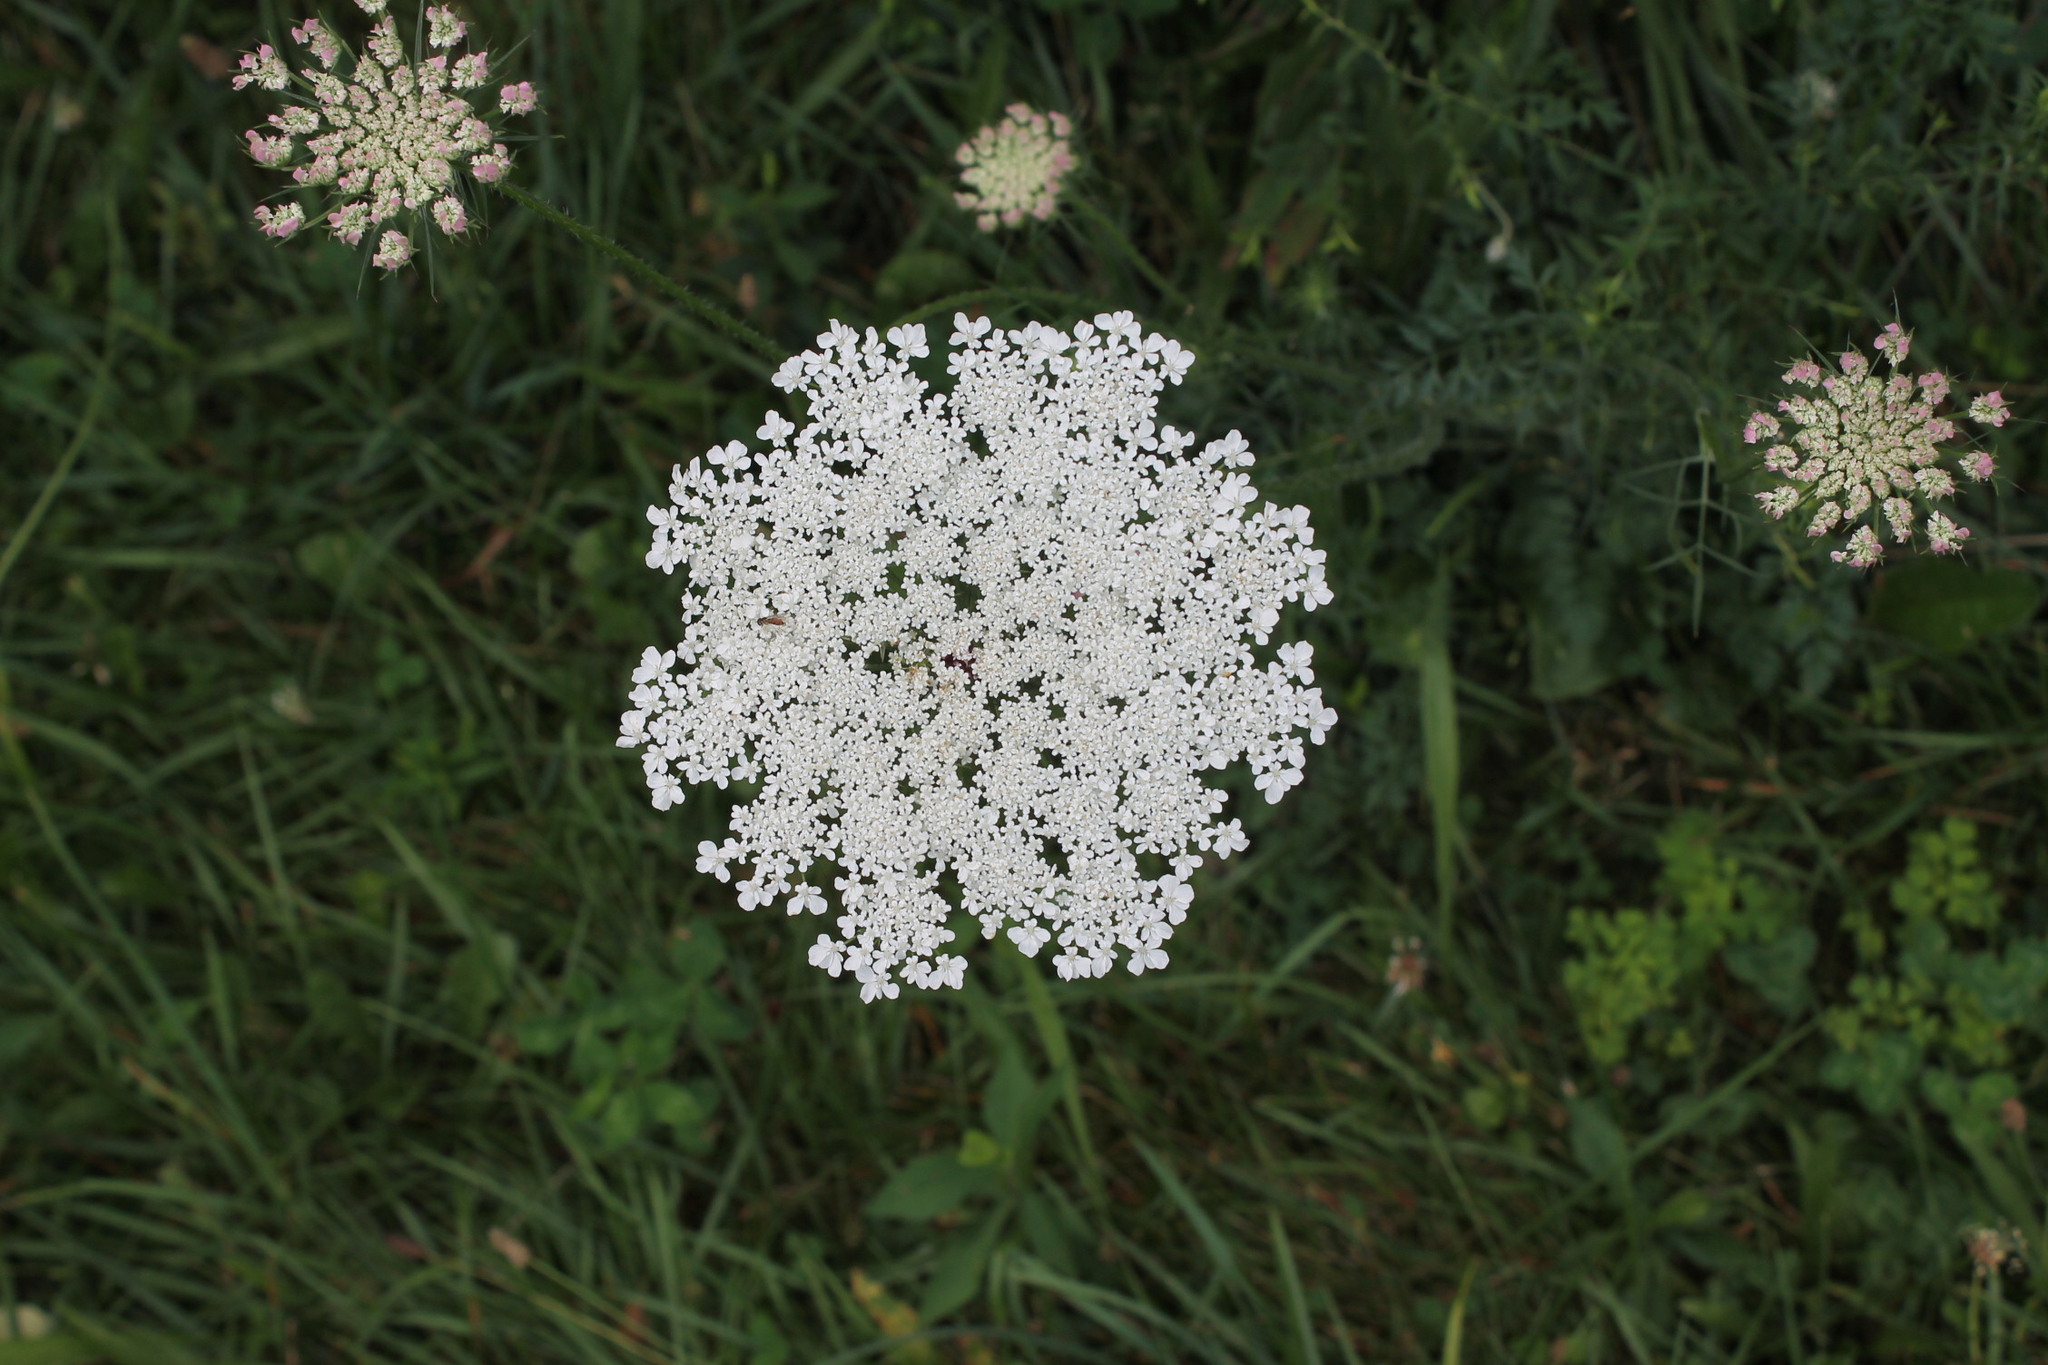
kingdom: Plantae
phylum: Tracheophyta
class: Magnoliopsida
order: Apiales
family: Apiaceae
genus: Daucus
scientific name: Daucus carota
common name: Wild carrot
